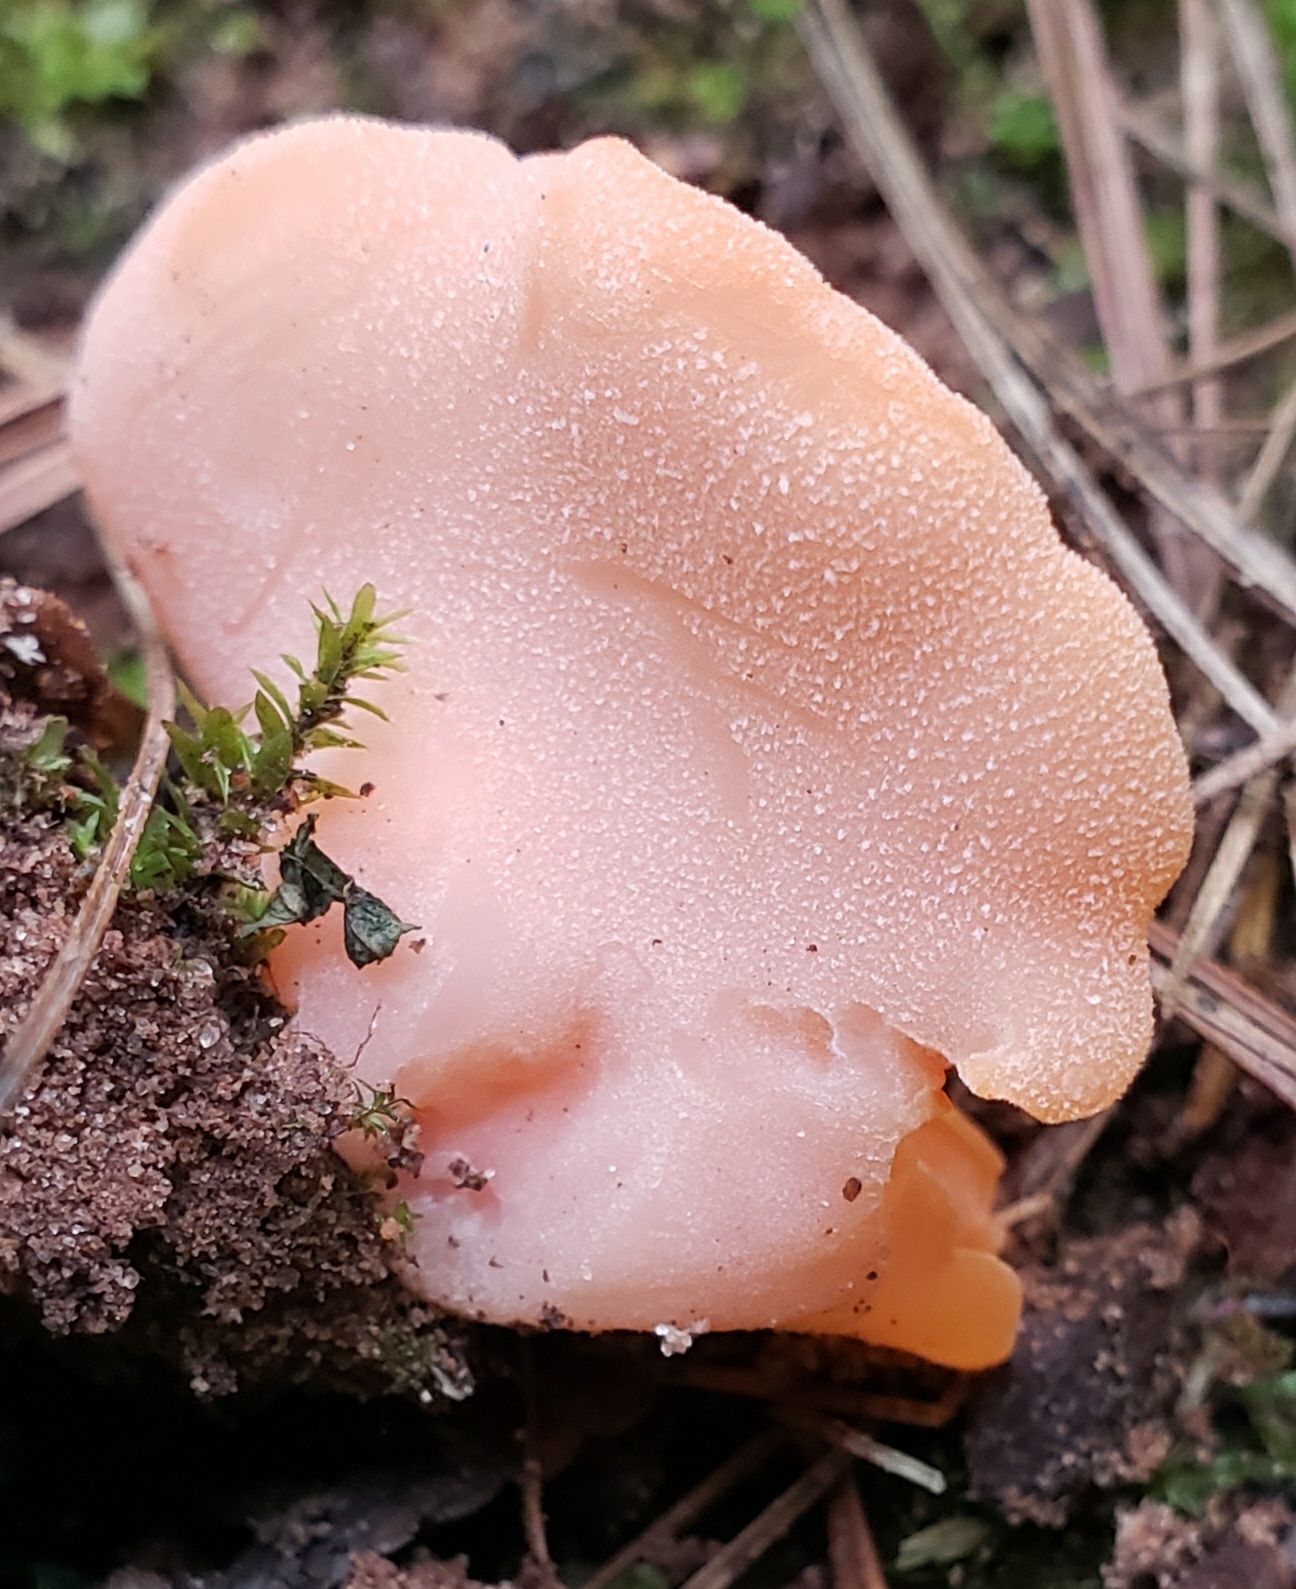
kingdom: Fungi
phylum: Ascomycota
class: Pezizomycetes
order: Pezizales
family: Pyronemataceae
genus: Aleuria
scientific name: Aleuria aurantia
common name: Orange peel fungus
